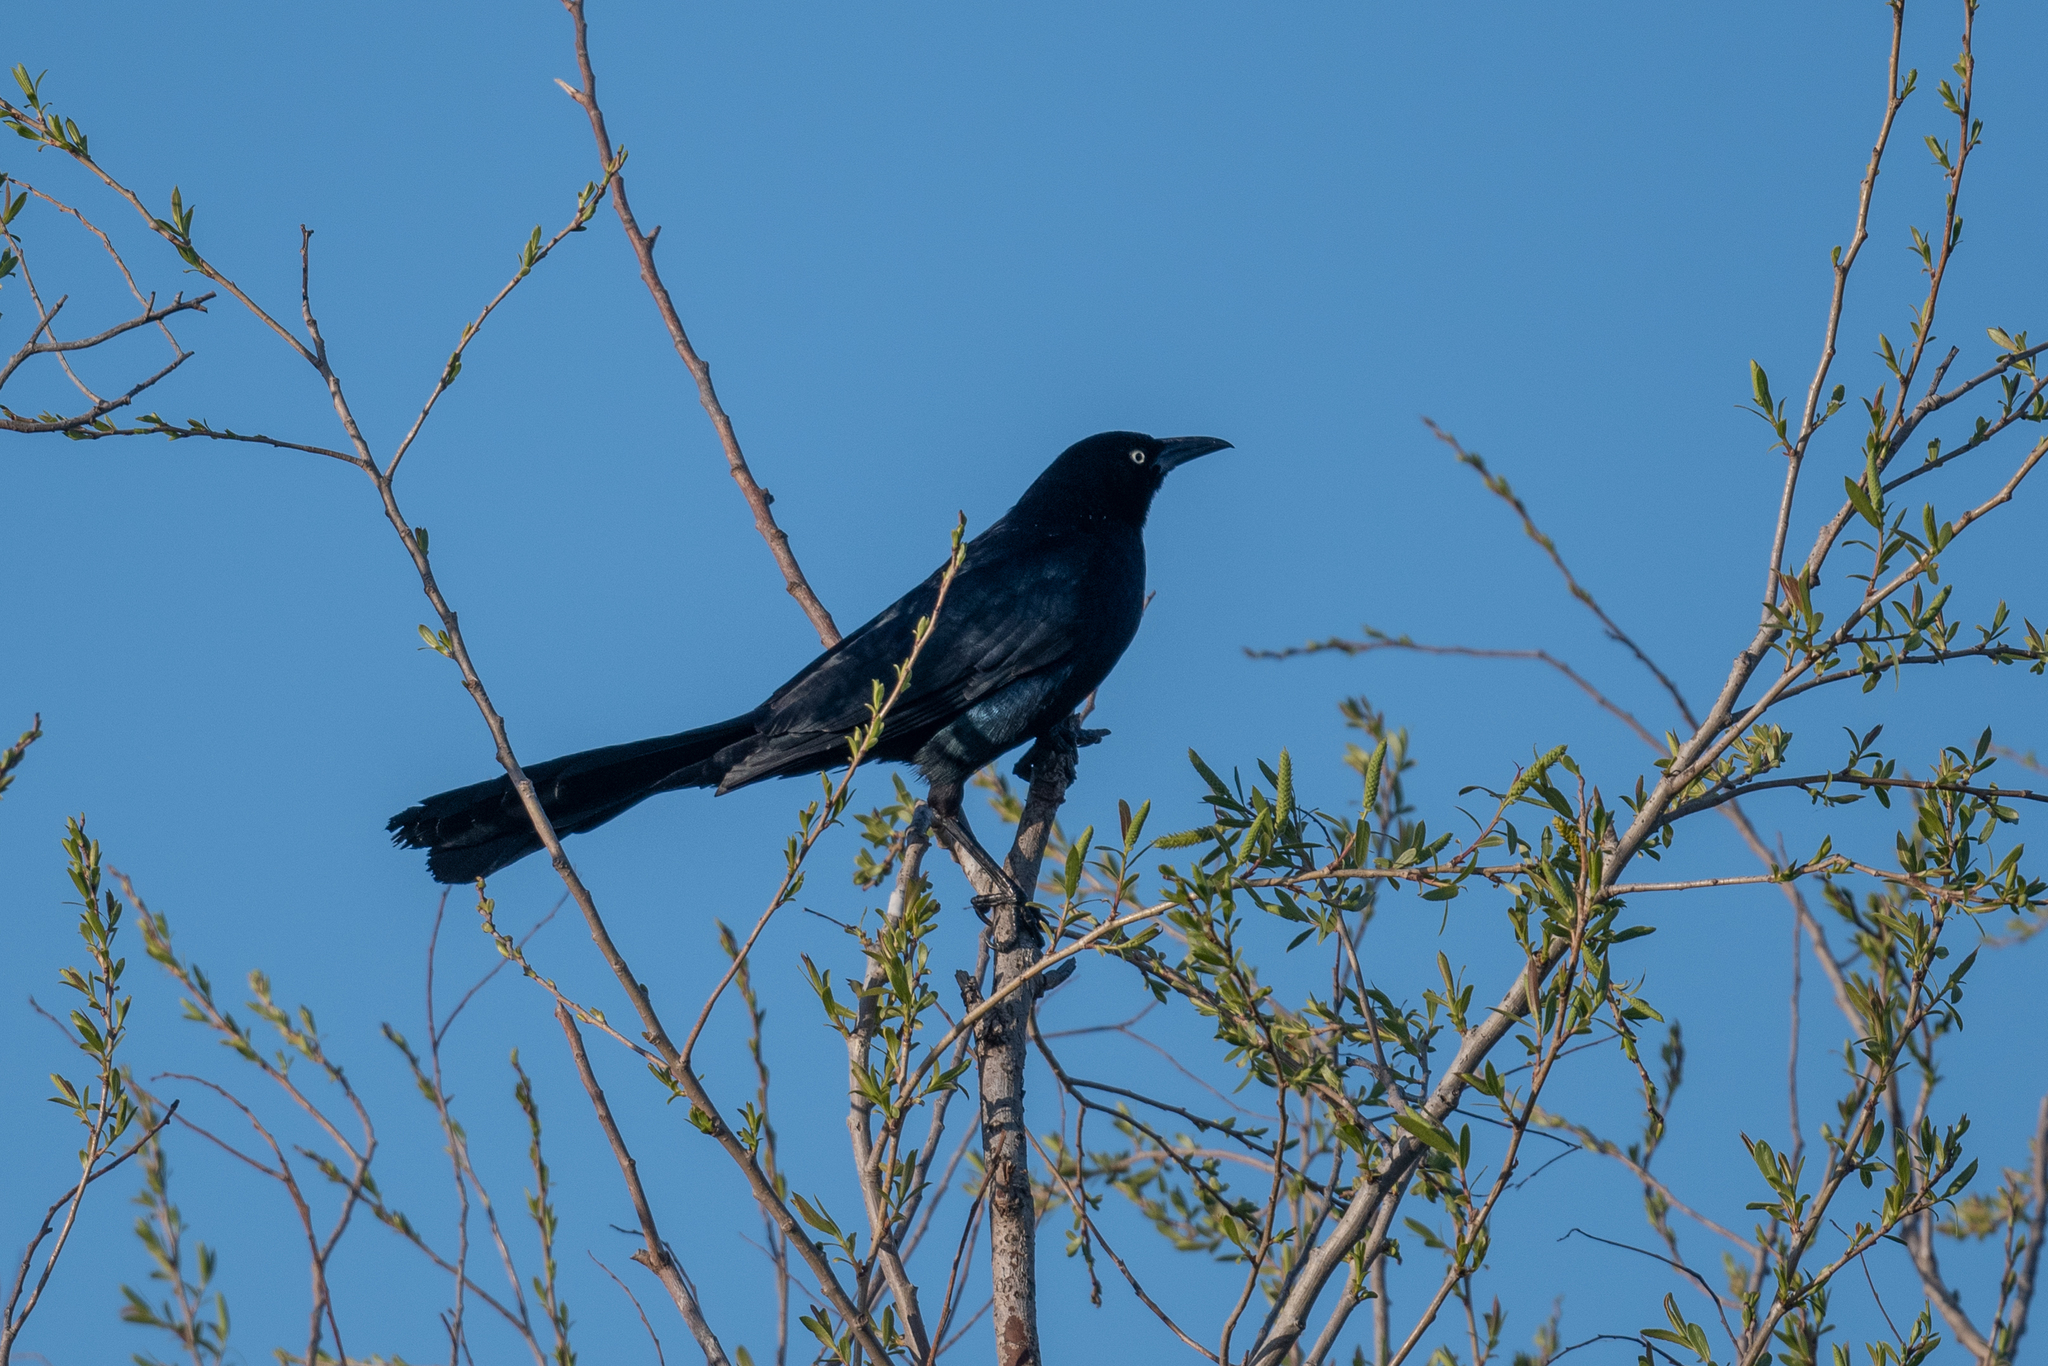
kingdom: Animalia
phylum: Chordata
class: Aves
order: Passeriformes
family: Icteridae
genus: Quiscalus
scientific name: Quiscalus mexicanus
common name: Great-tailed grackle
